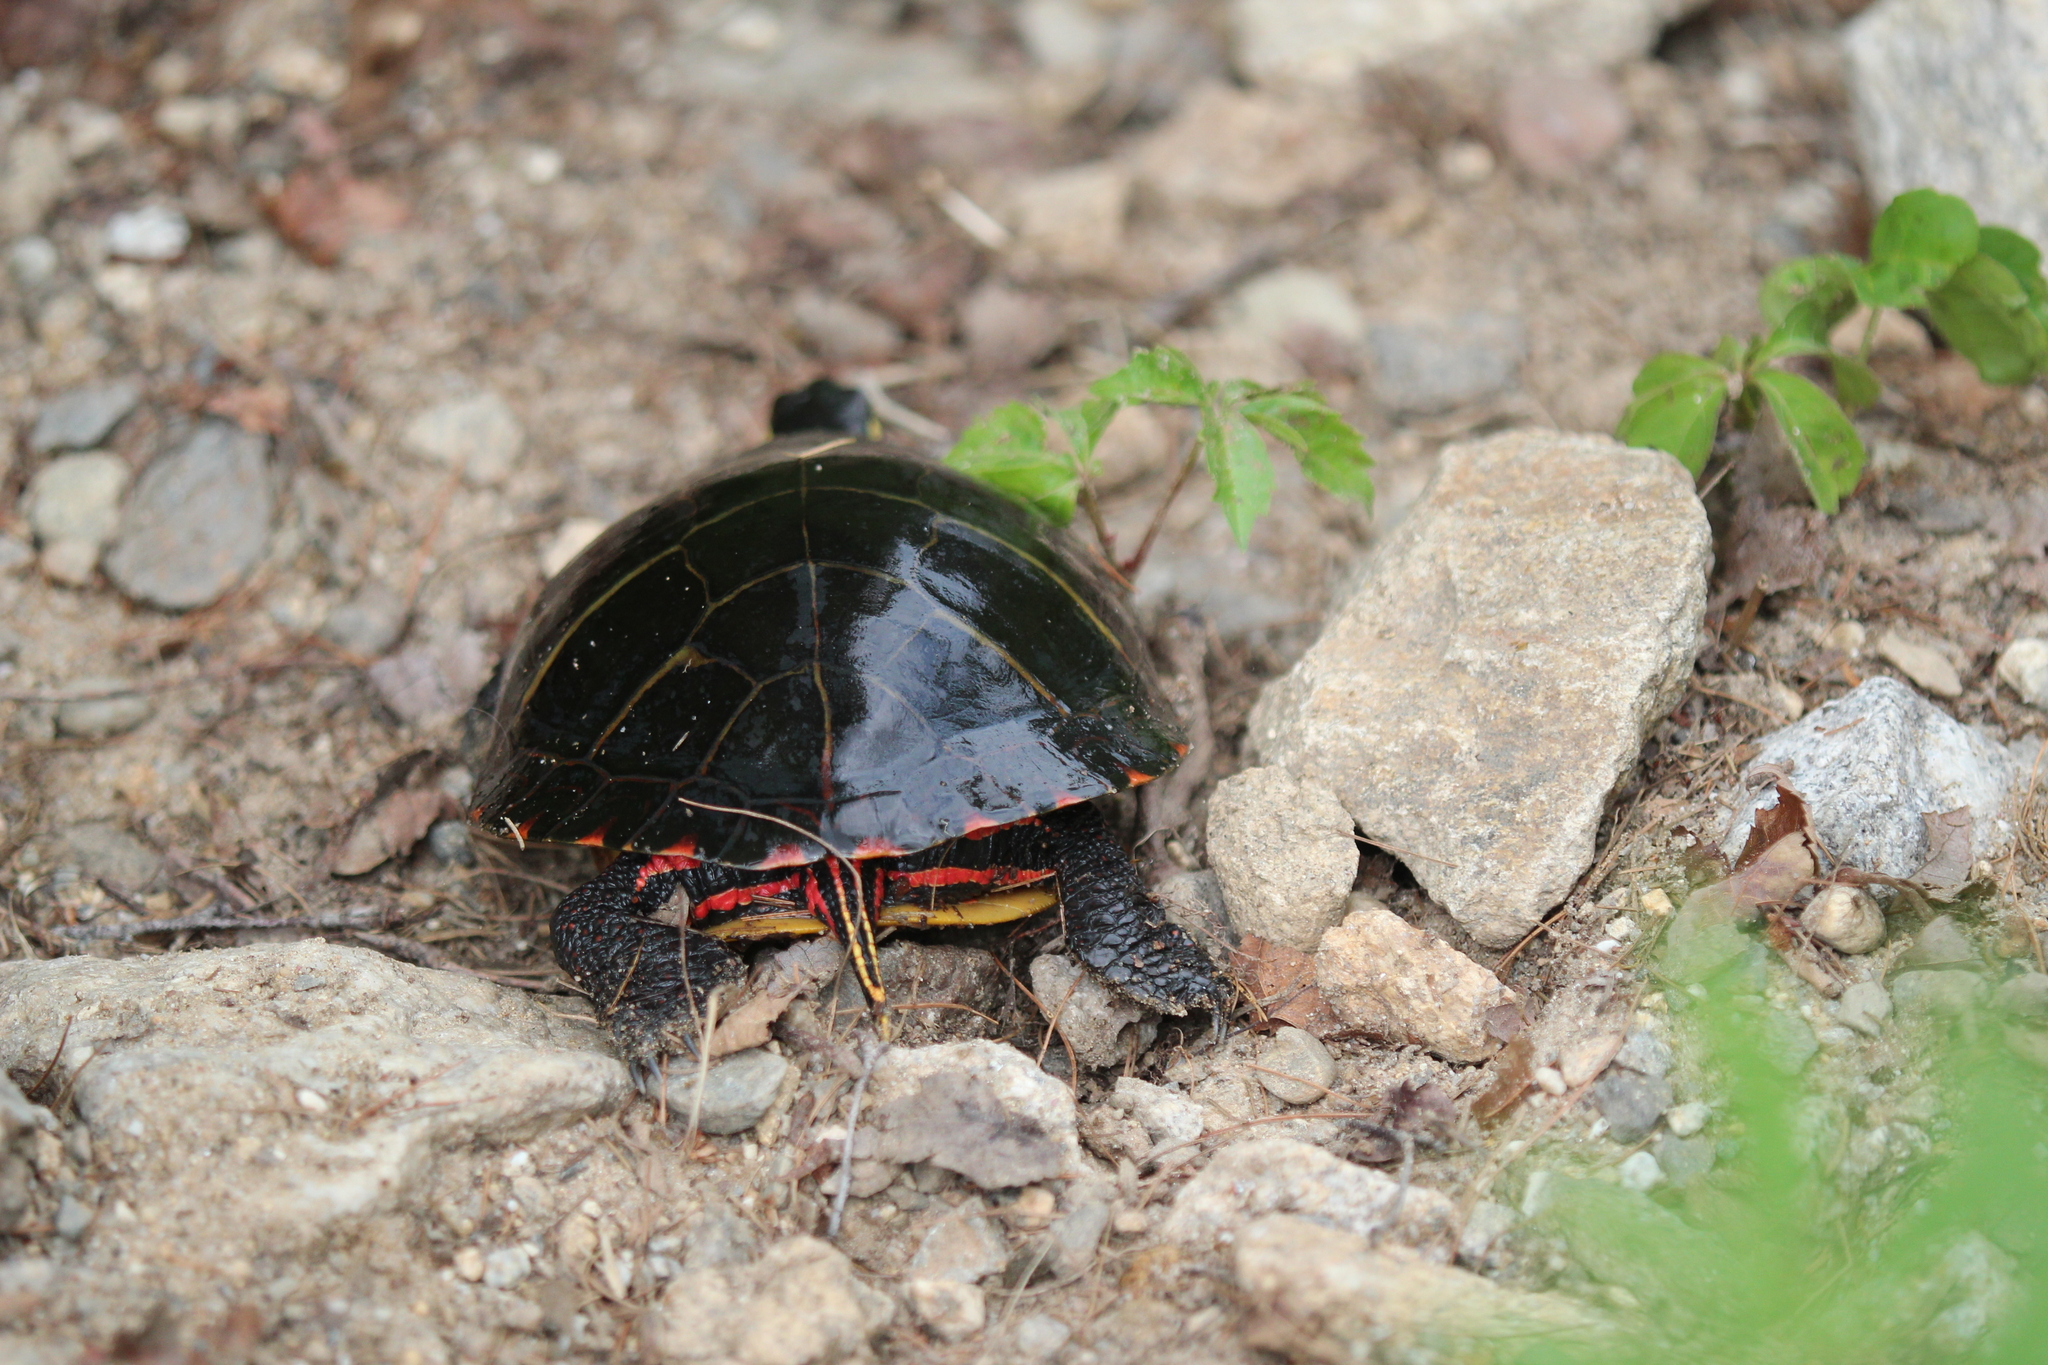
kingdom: Animalia
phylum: Chordata
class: Testudines
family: Emydidae
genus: Chrysemys
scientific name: Chrysemys picta
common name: Painted turtle
